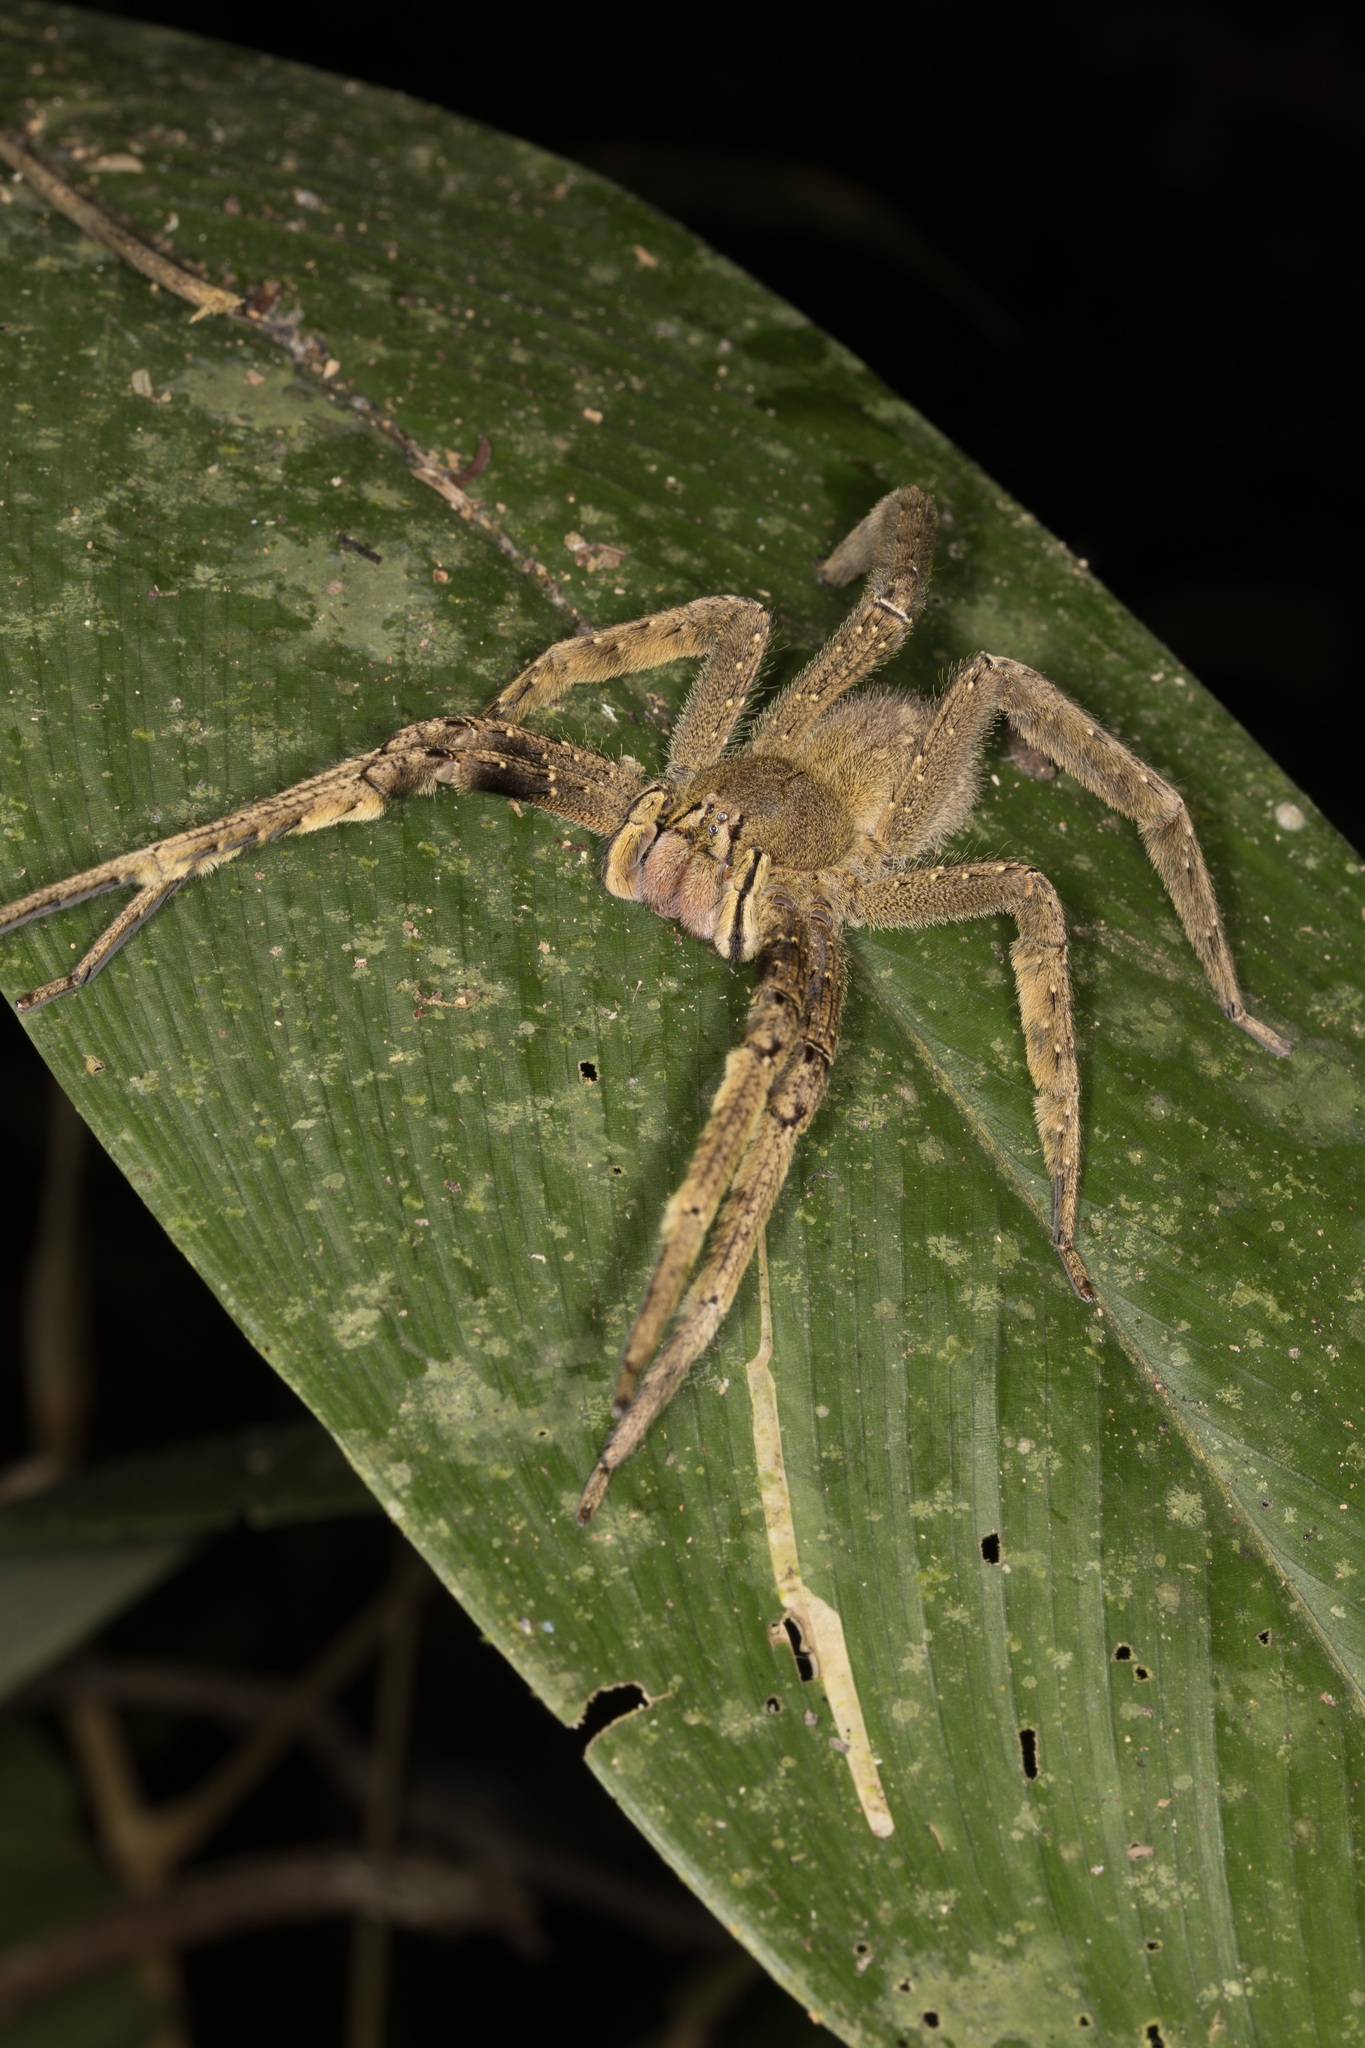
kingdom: Animalia
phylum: Arthropoda
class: Arachnida
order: Araneae
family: Ctenidae
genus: Phoneutria
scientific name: Phoneutria fera
